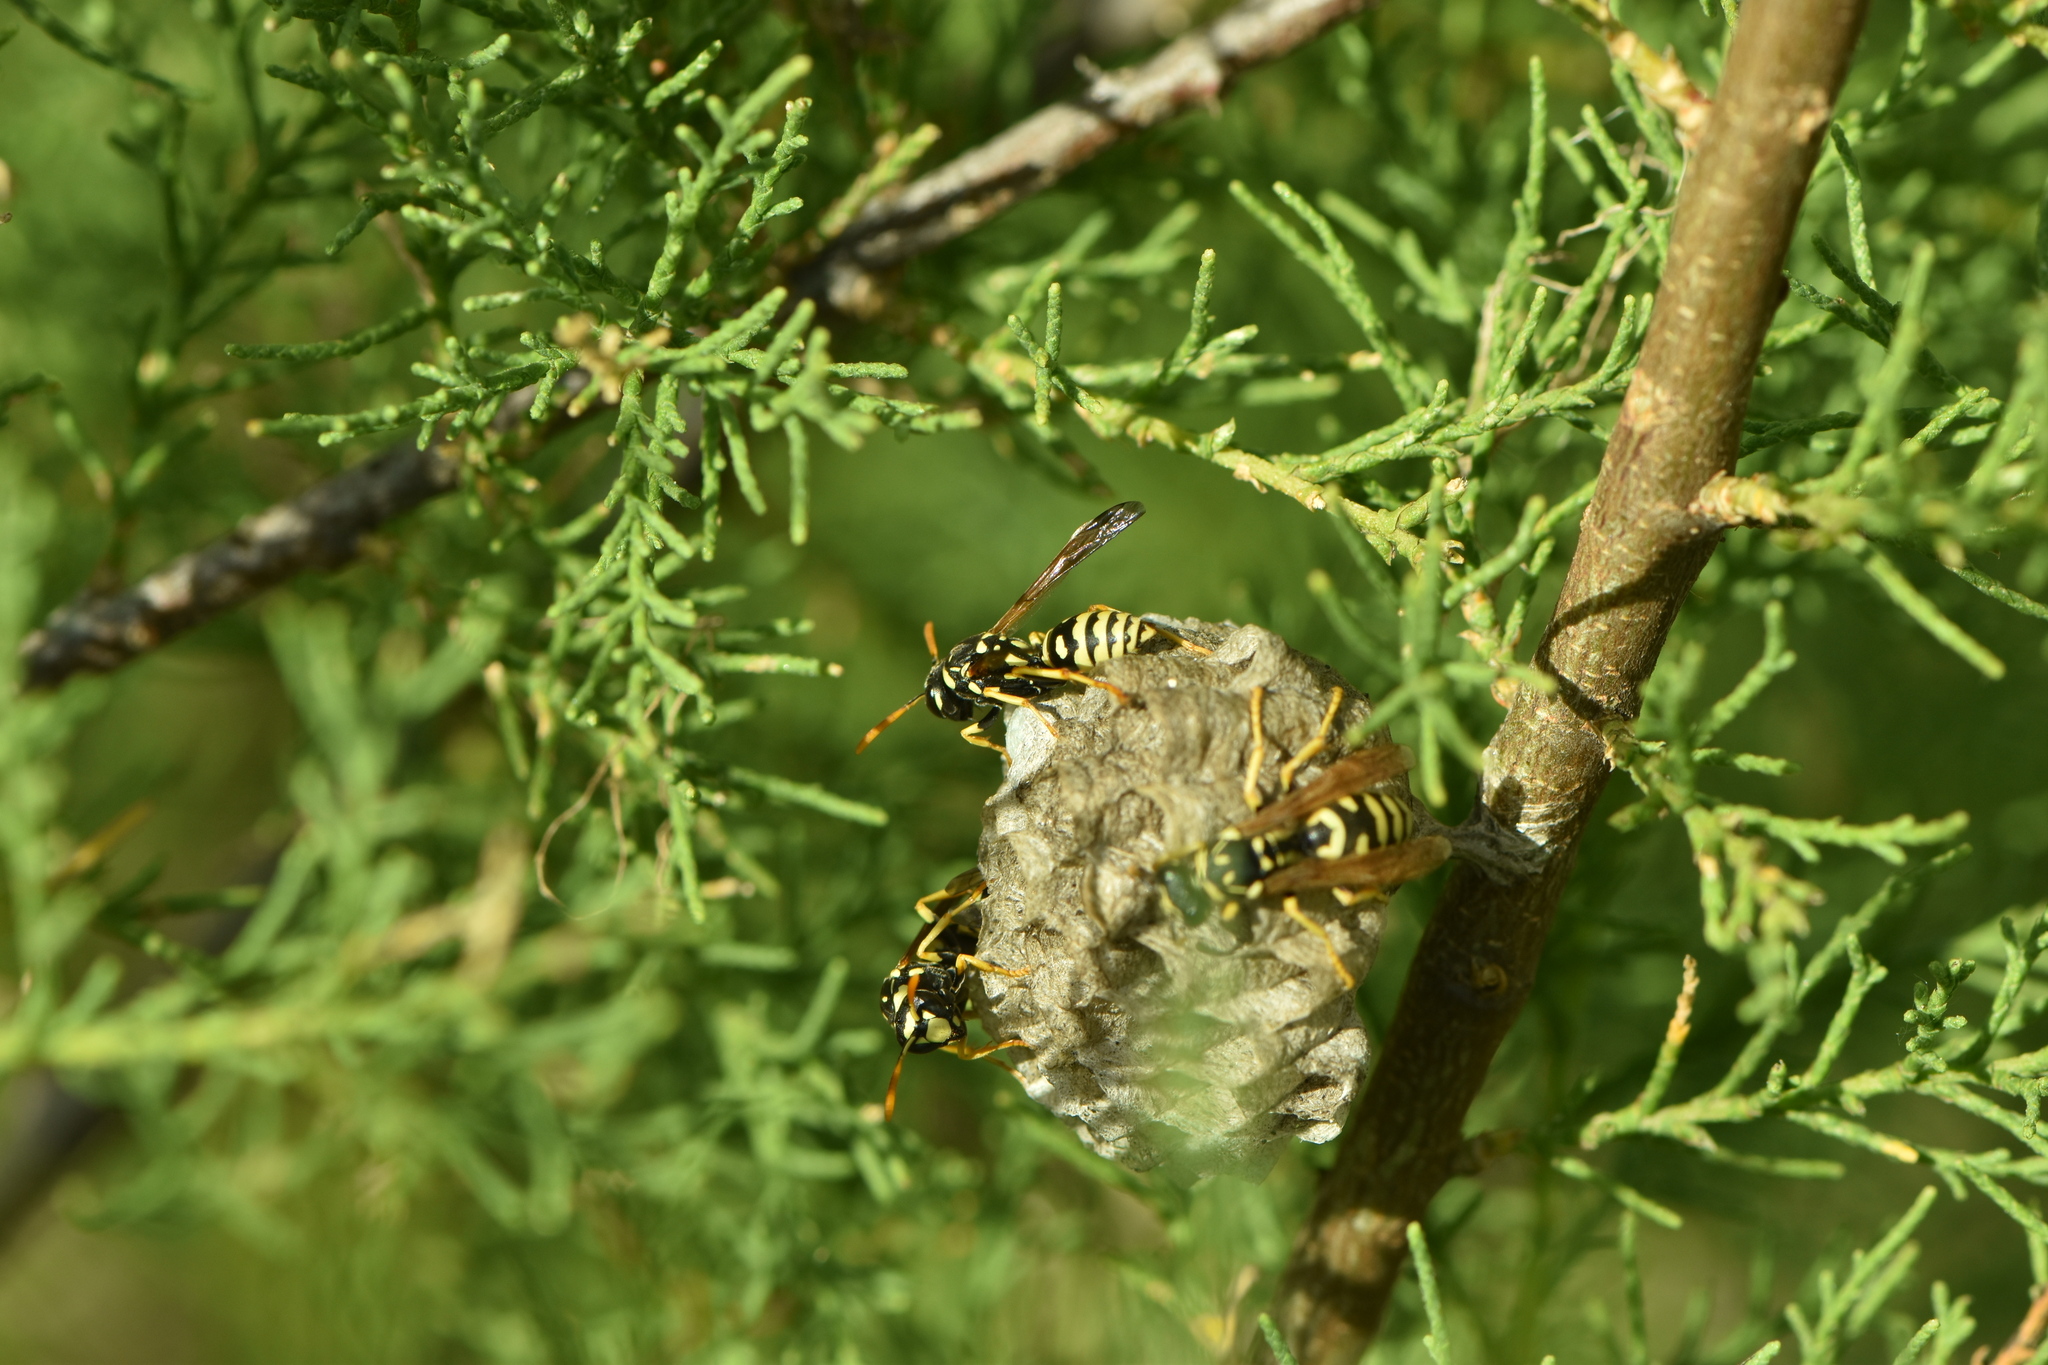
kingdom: Animalia
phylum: Arthropoda
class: Insecta
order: Hymenoptera
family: Eumenidae
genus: Polistes
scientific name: Polistes gallicus
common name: Paper wasp
